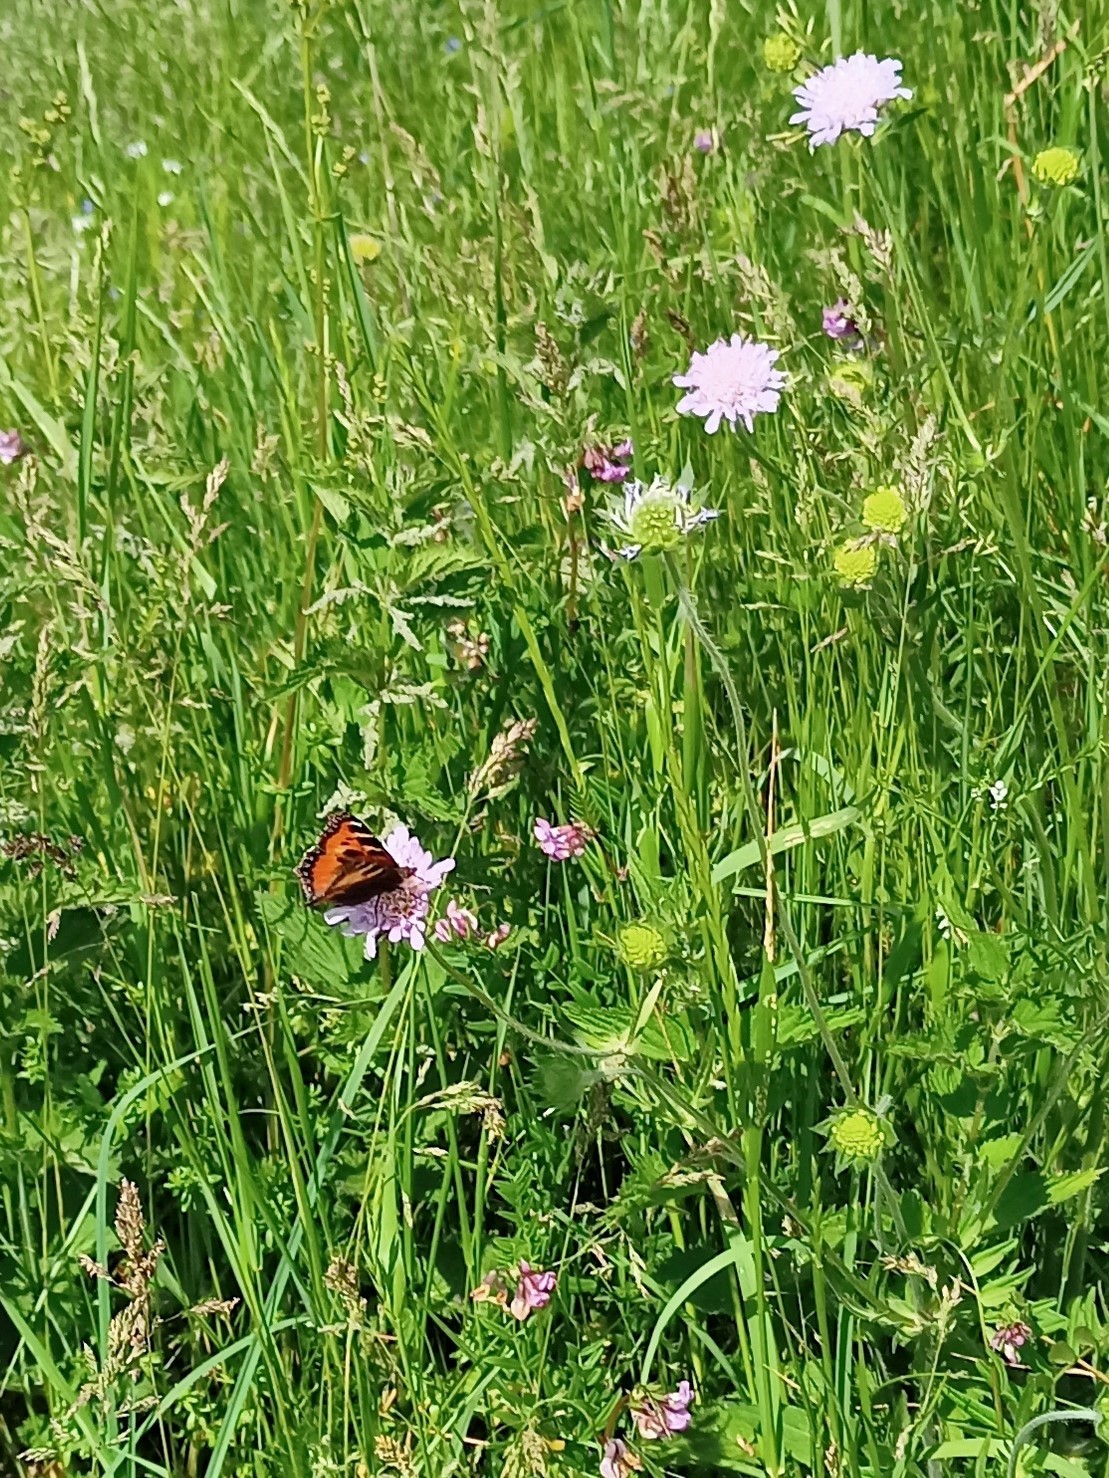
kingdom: Animalia
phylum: Arthropoda
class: Insecta
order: Lepidoptera
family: Nymphalidae
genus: Aglais
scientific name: Aglais urticae
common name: Small tortoiseshell
